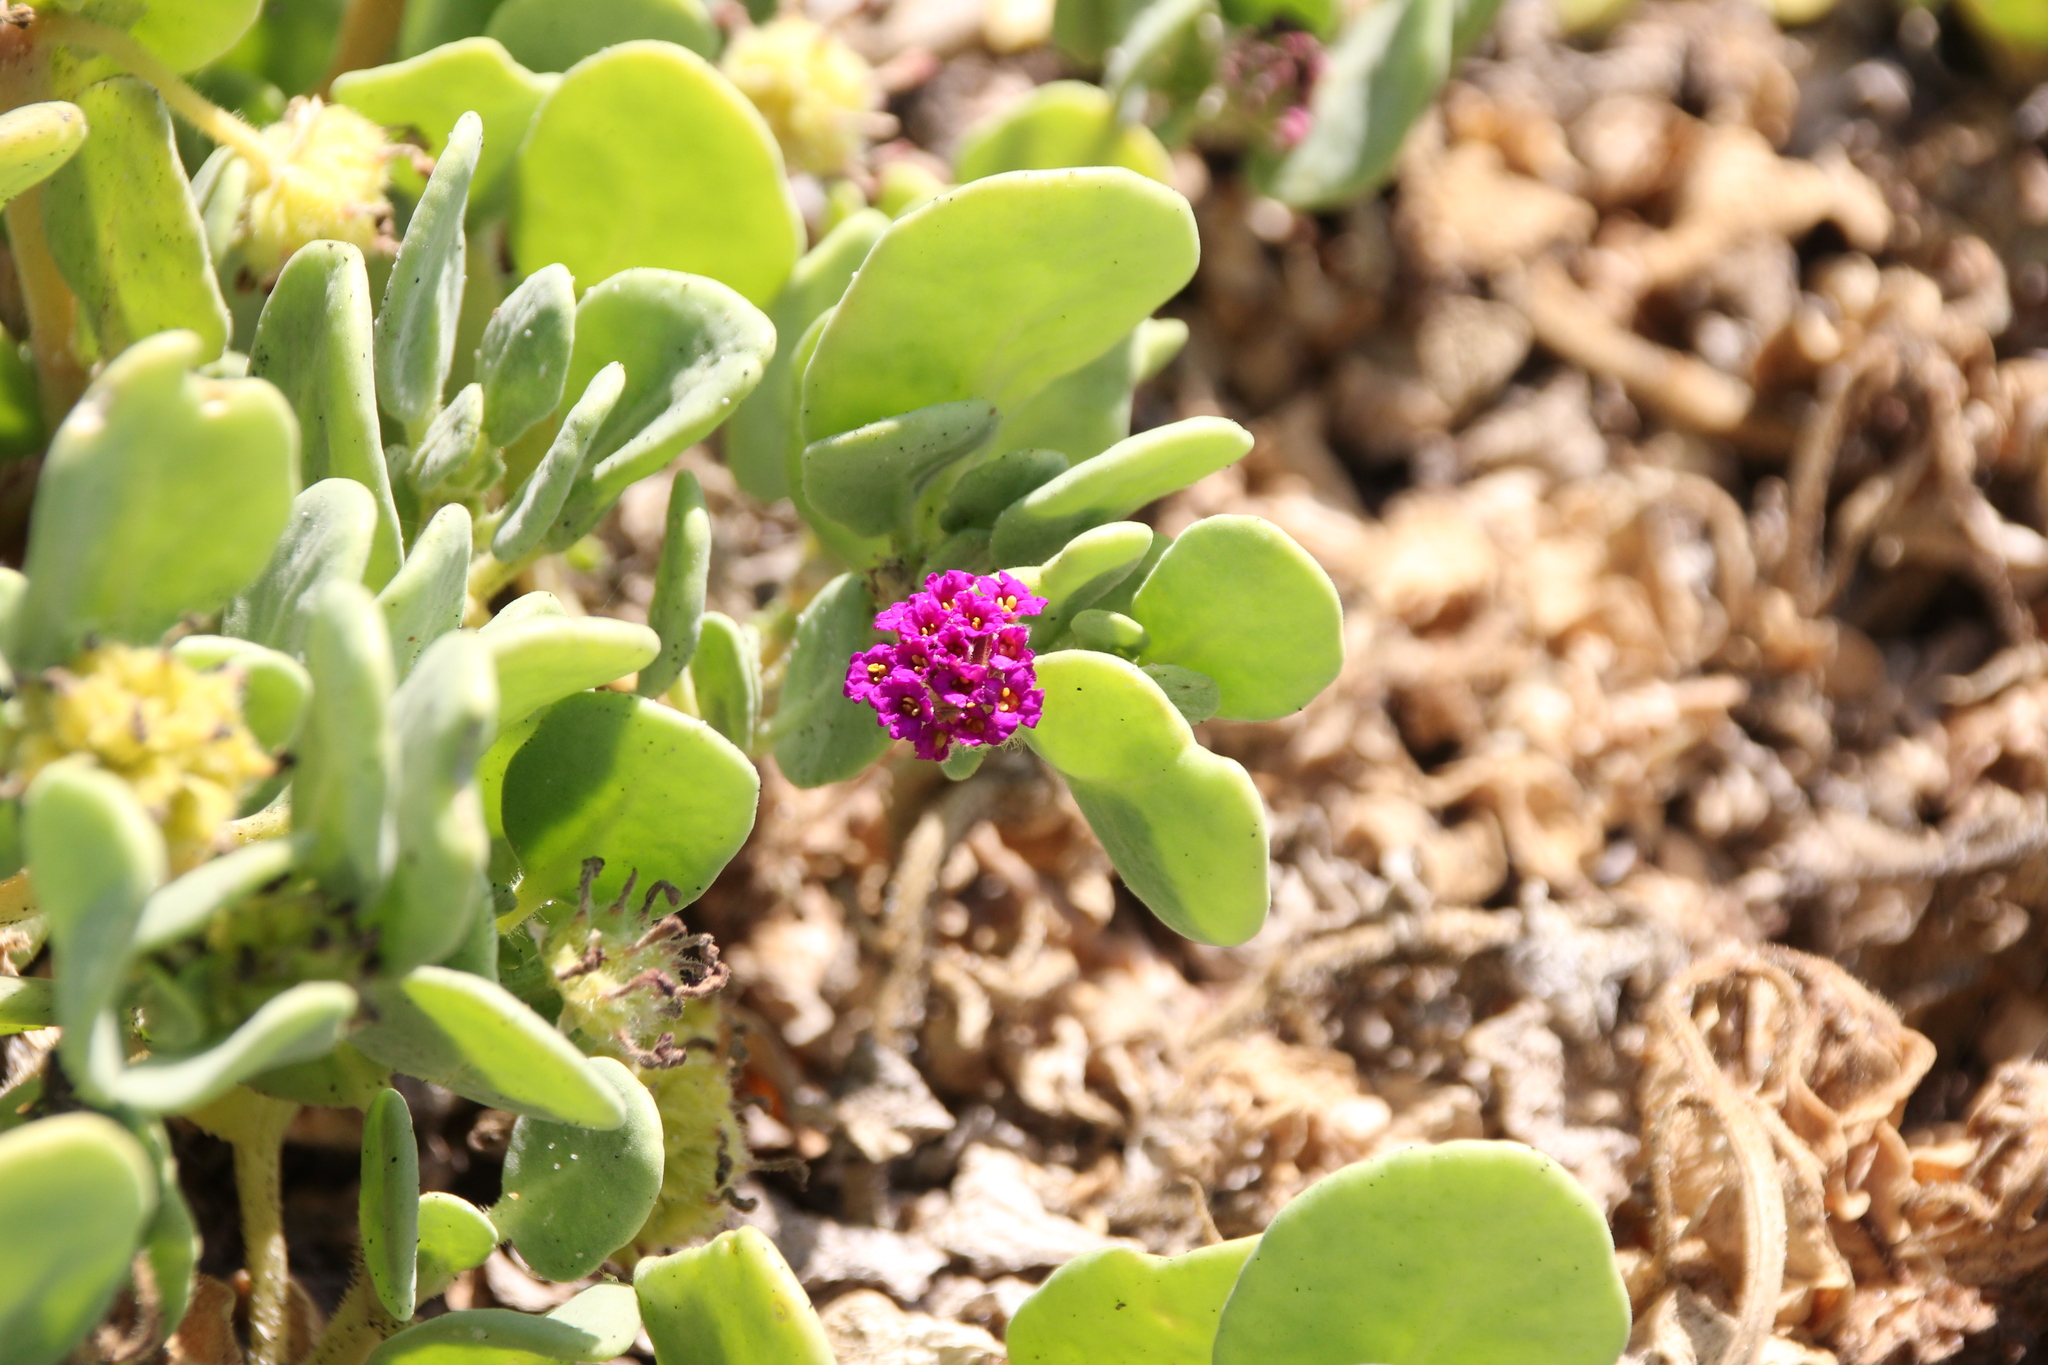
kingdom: Plantae
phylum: Tracheophyta
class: Magnoliopsida
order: Caryophyllales
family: Nyctaginaceae
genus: Abronia
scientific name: Abronia maritima
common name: Red sand-verbena
